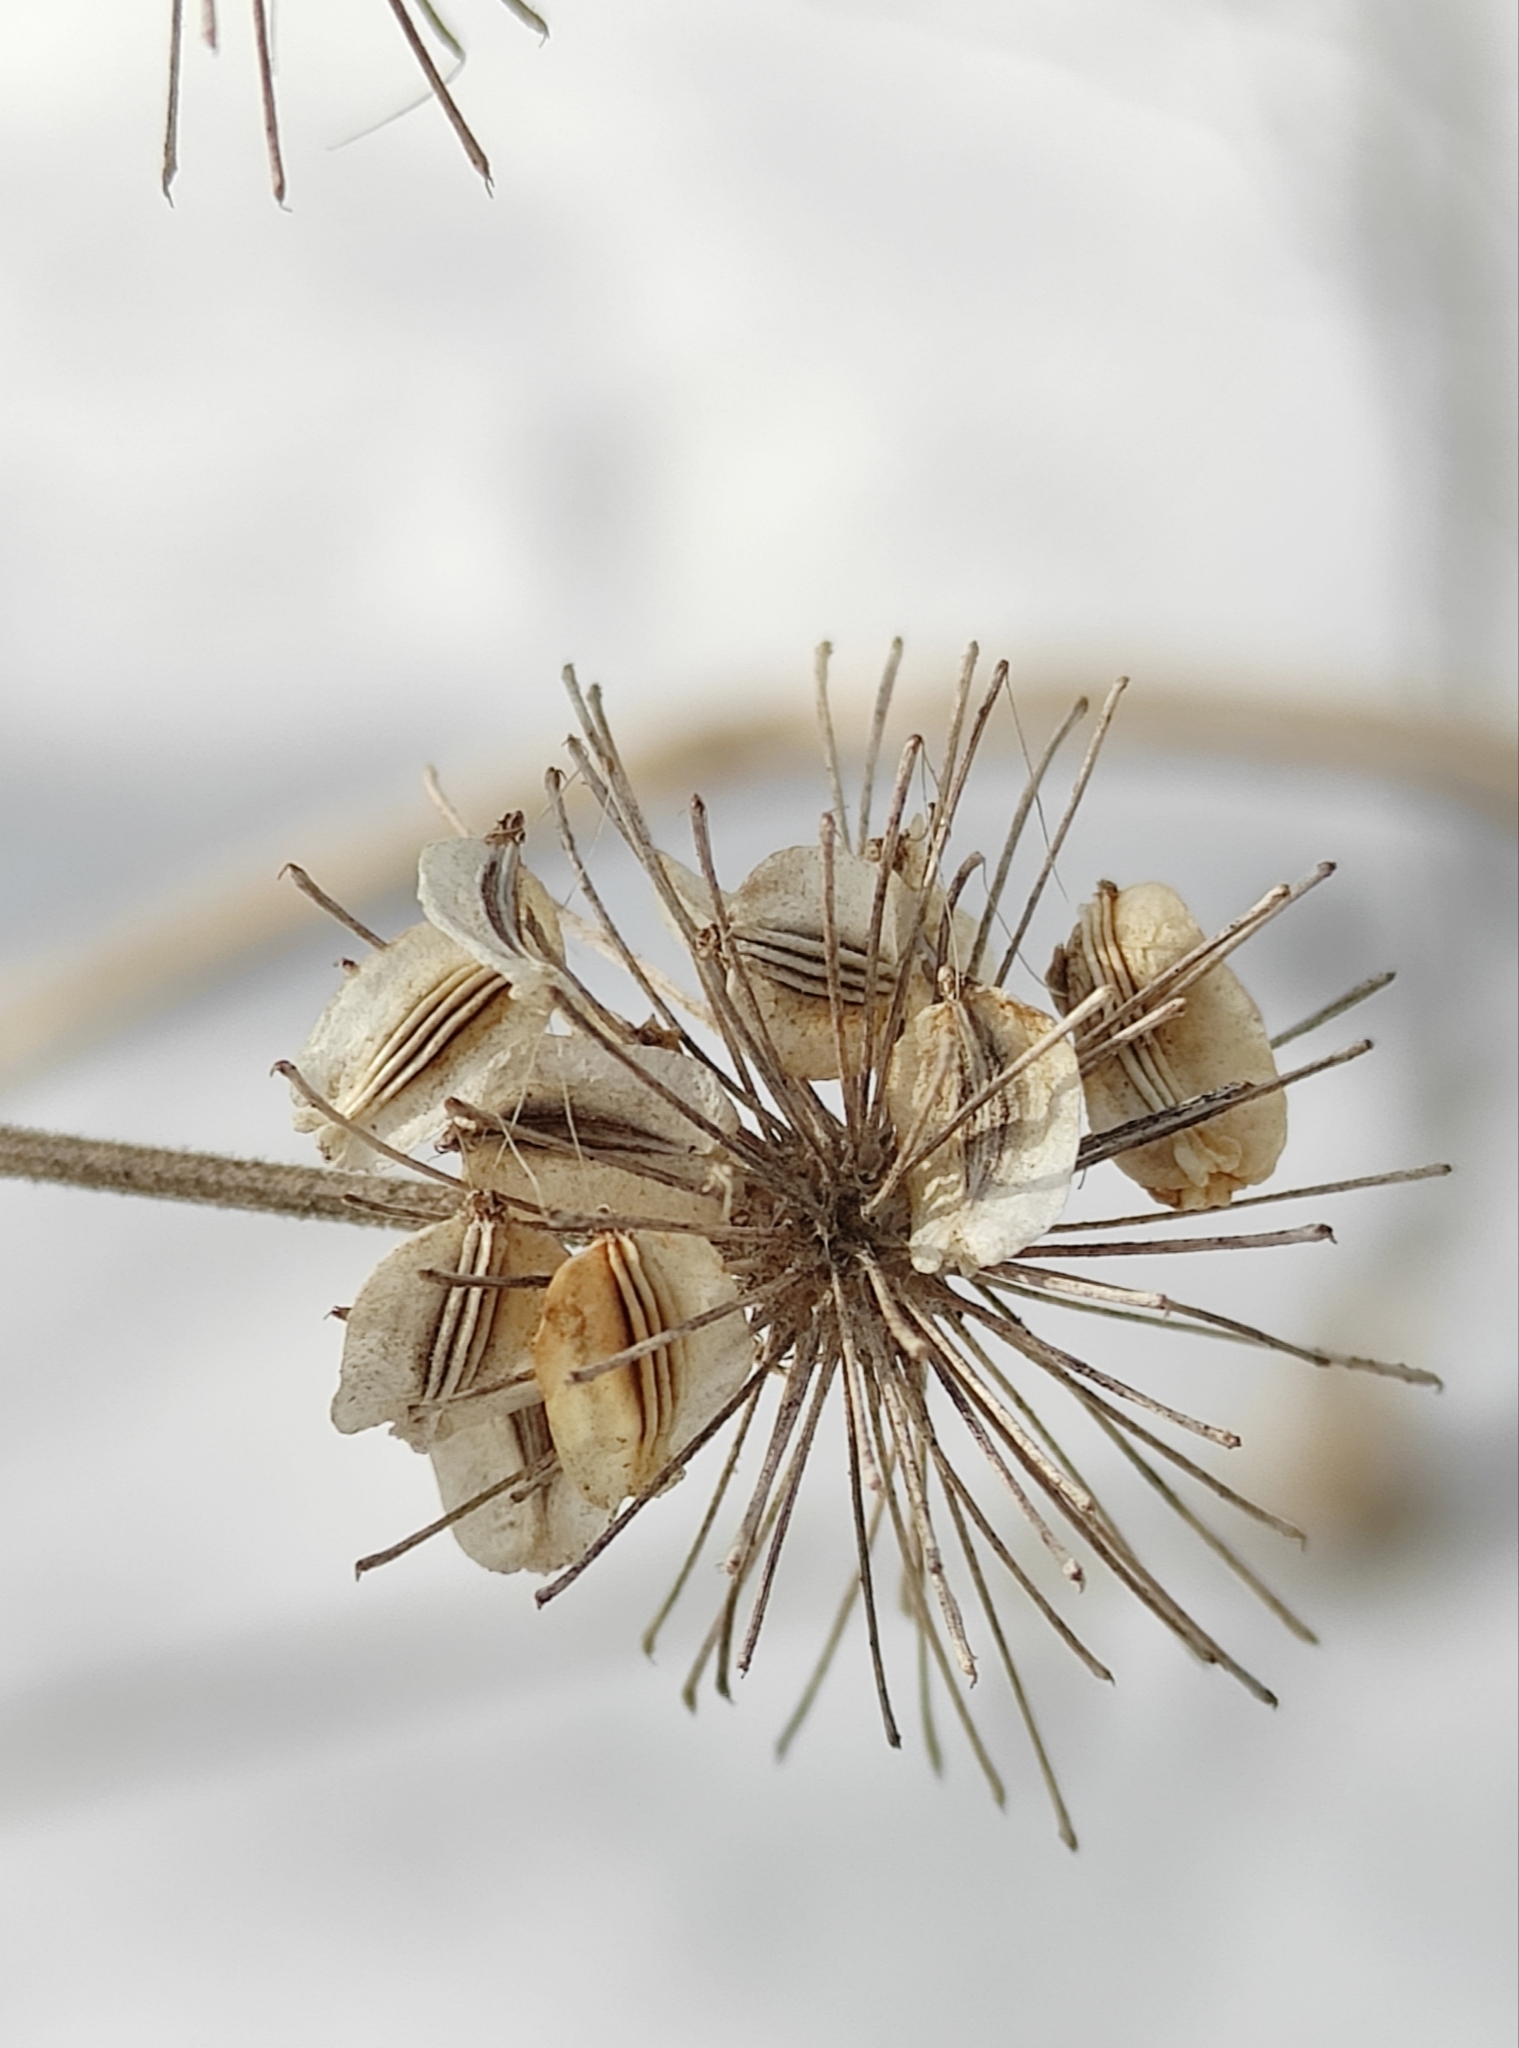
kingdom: Plantae
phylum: Tracheophyta
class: Magnoliopsida
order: Apiales
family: Apiaceae
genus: Angelica
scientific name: Angelica sylvestris
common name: Wild angelica
